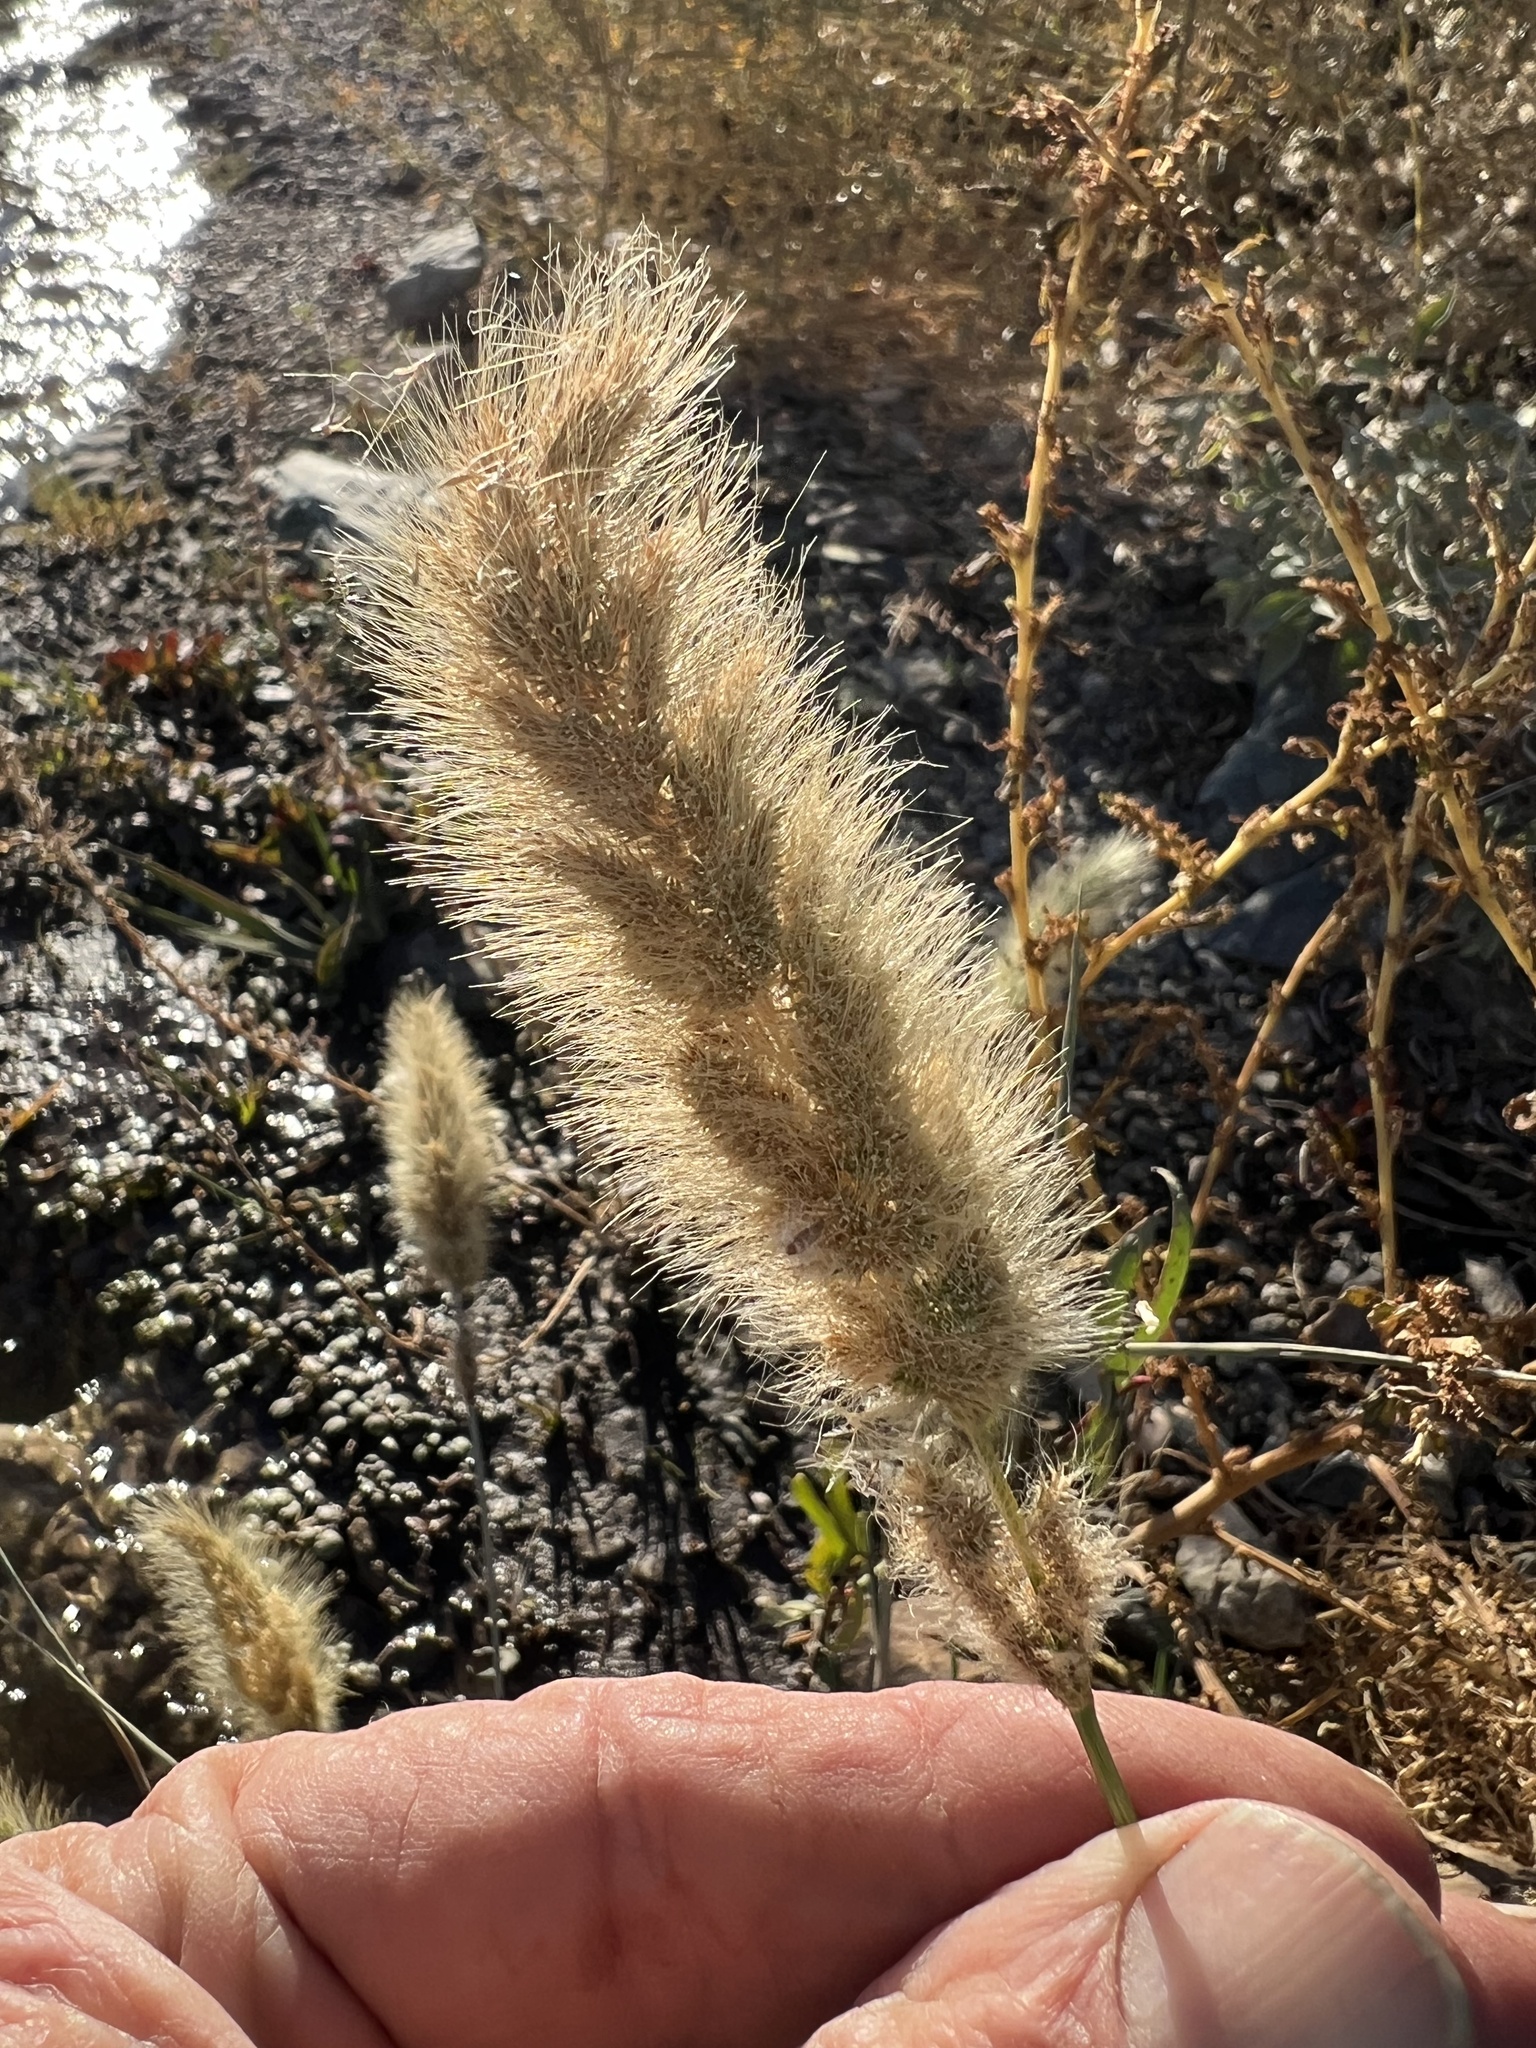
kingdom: Plantae
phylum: Tracheophyta
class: Liliopsida
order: Poales
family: Poaceae
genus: Polypogon
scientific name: Polypogon monspeliensis
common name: Annual rabbitsfoot grass
